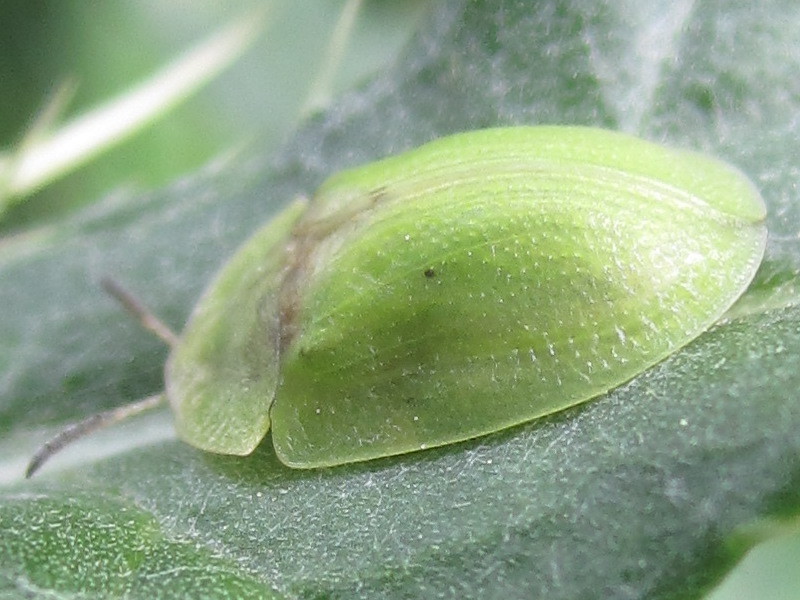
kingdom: Animalia
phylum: Arthropoda
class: Insecta
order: Coleoptera
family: Chrysomelidae
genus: Cassida
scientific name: Cassida rubiginosa
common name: Thistle tortoise beetle
